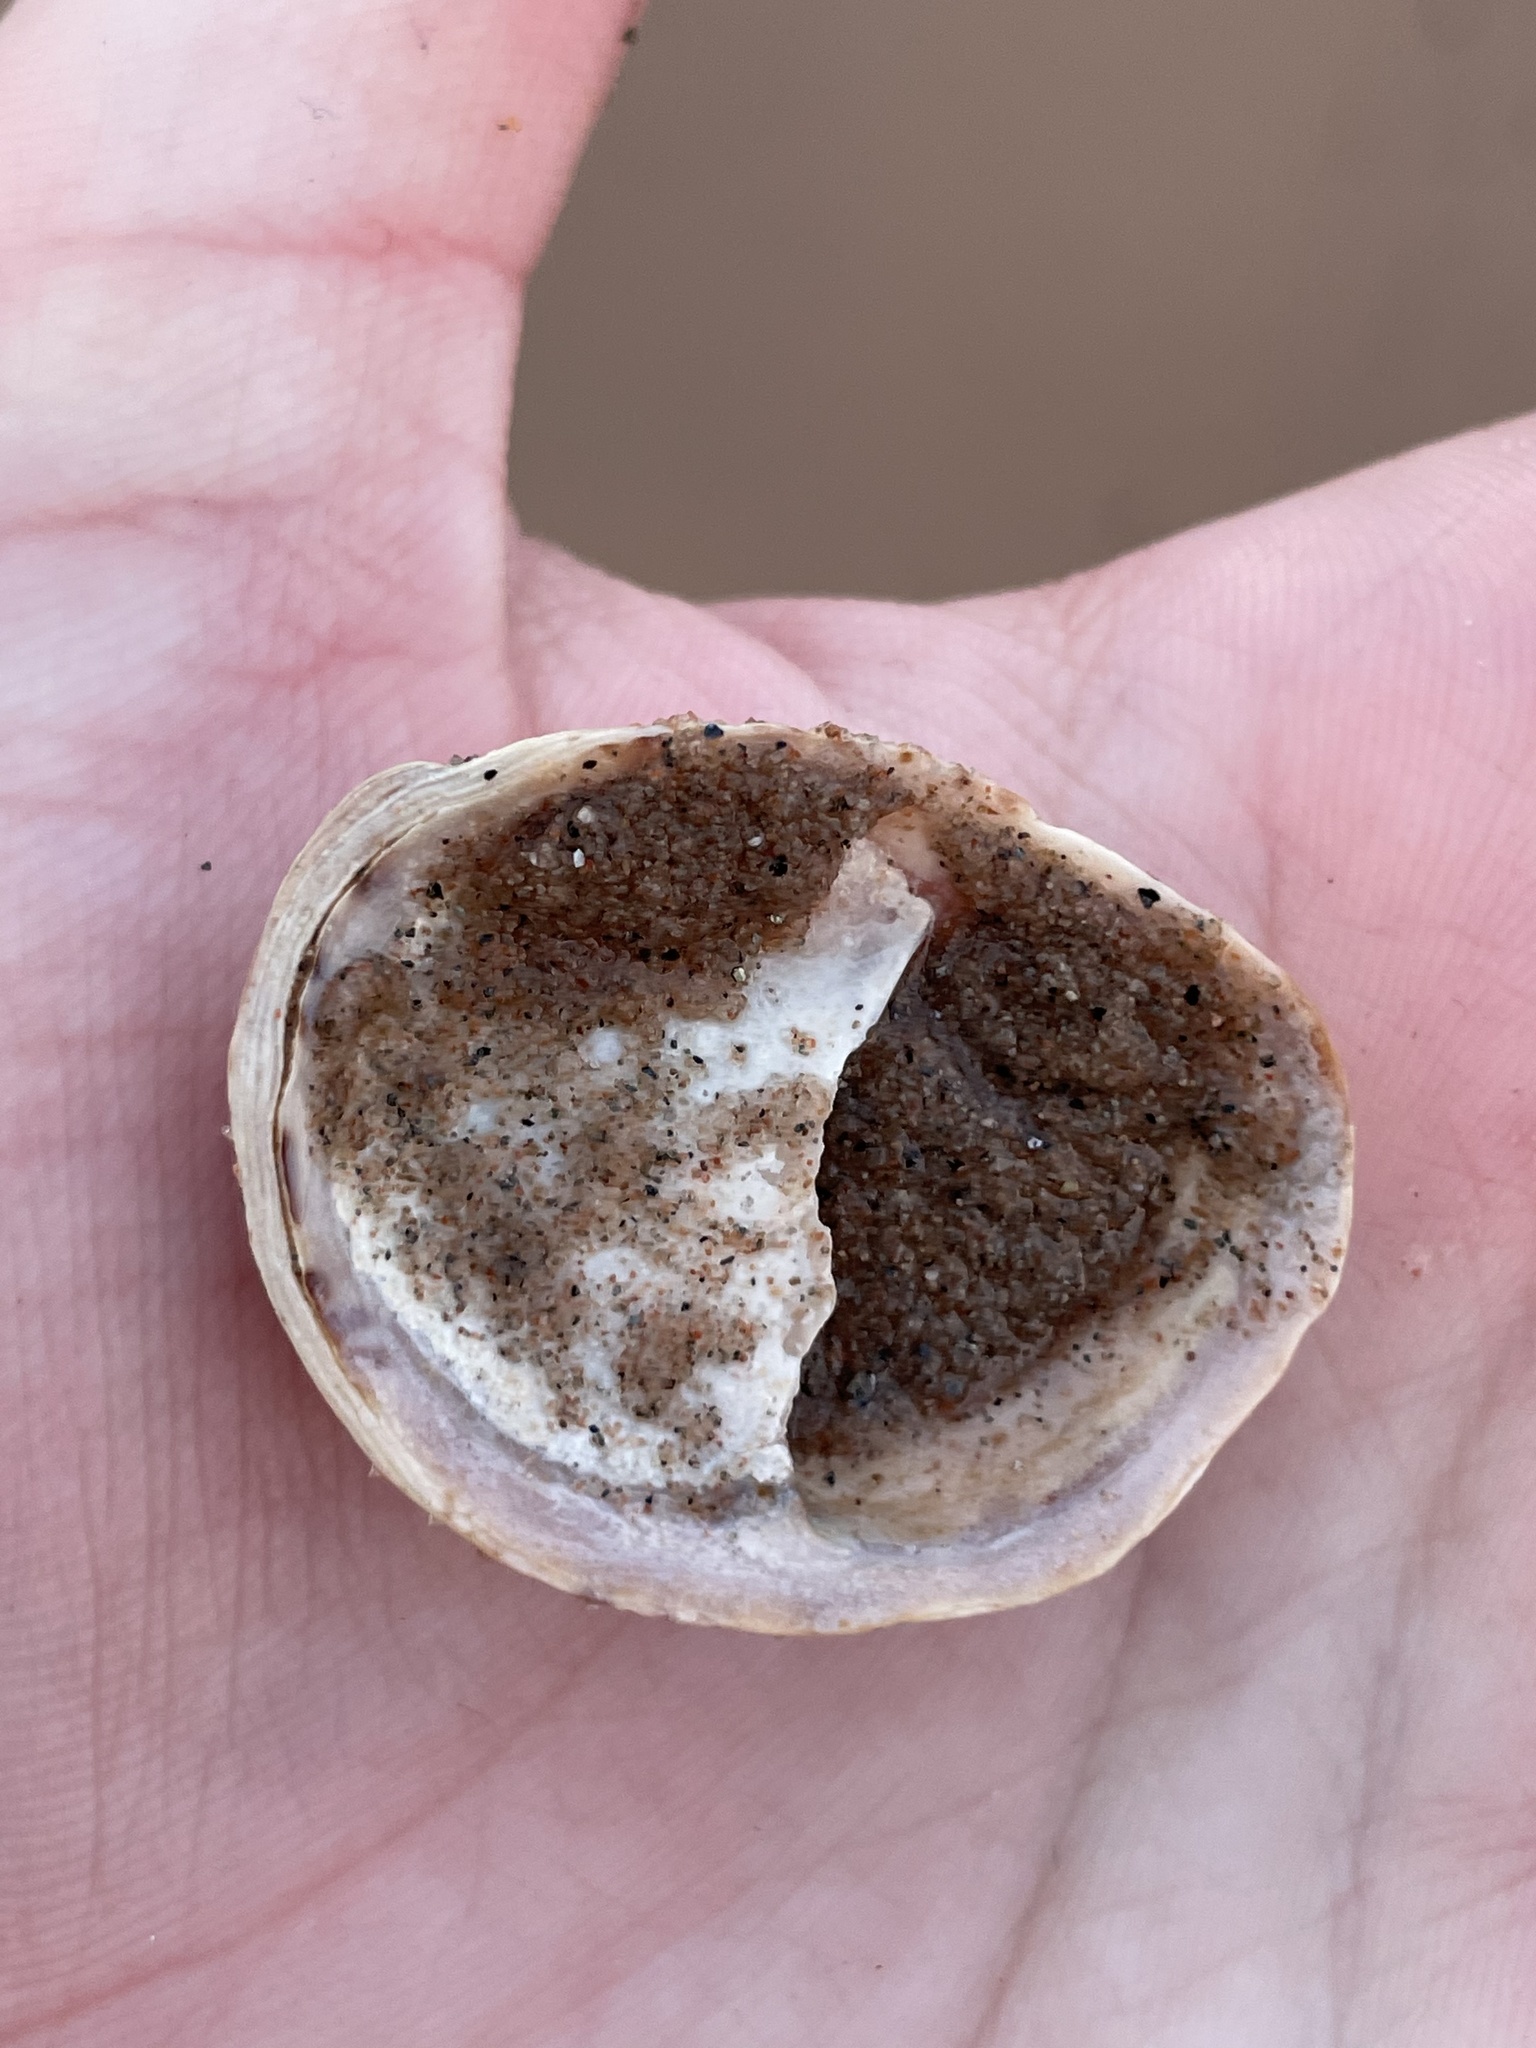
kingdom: Animalia
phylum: Mollusca
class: Gastropoda
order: Littorinimorpha
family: Calyptraeidae
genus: Crepidula
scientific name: Crepidula fornicata
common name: Slipper limpet
